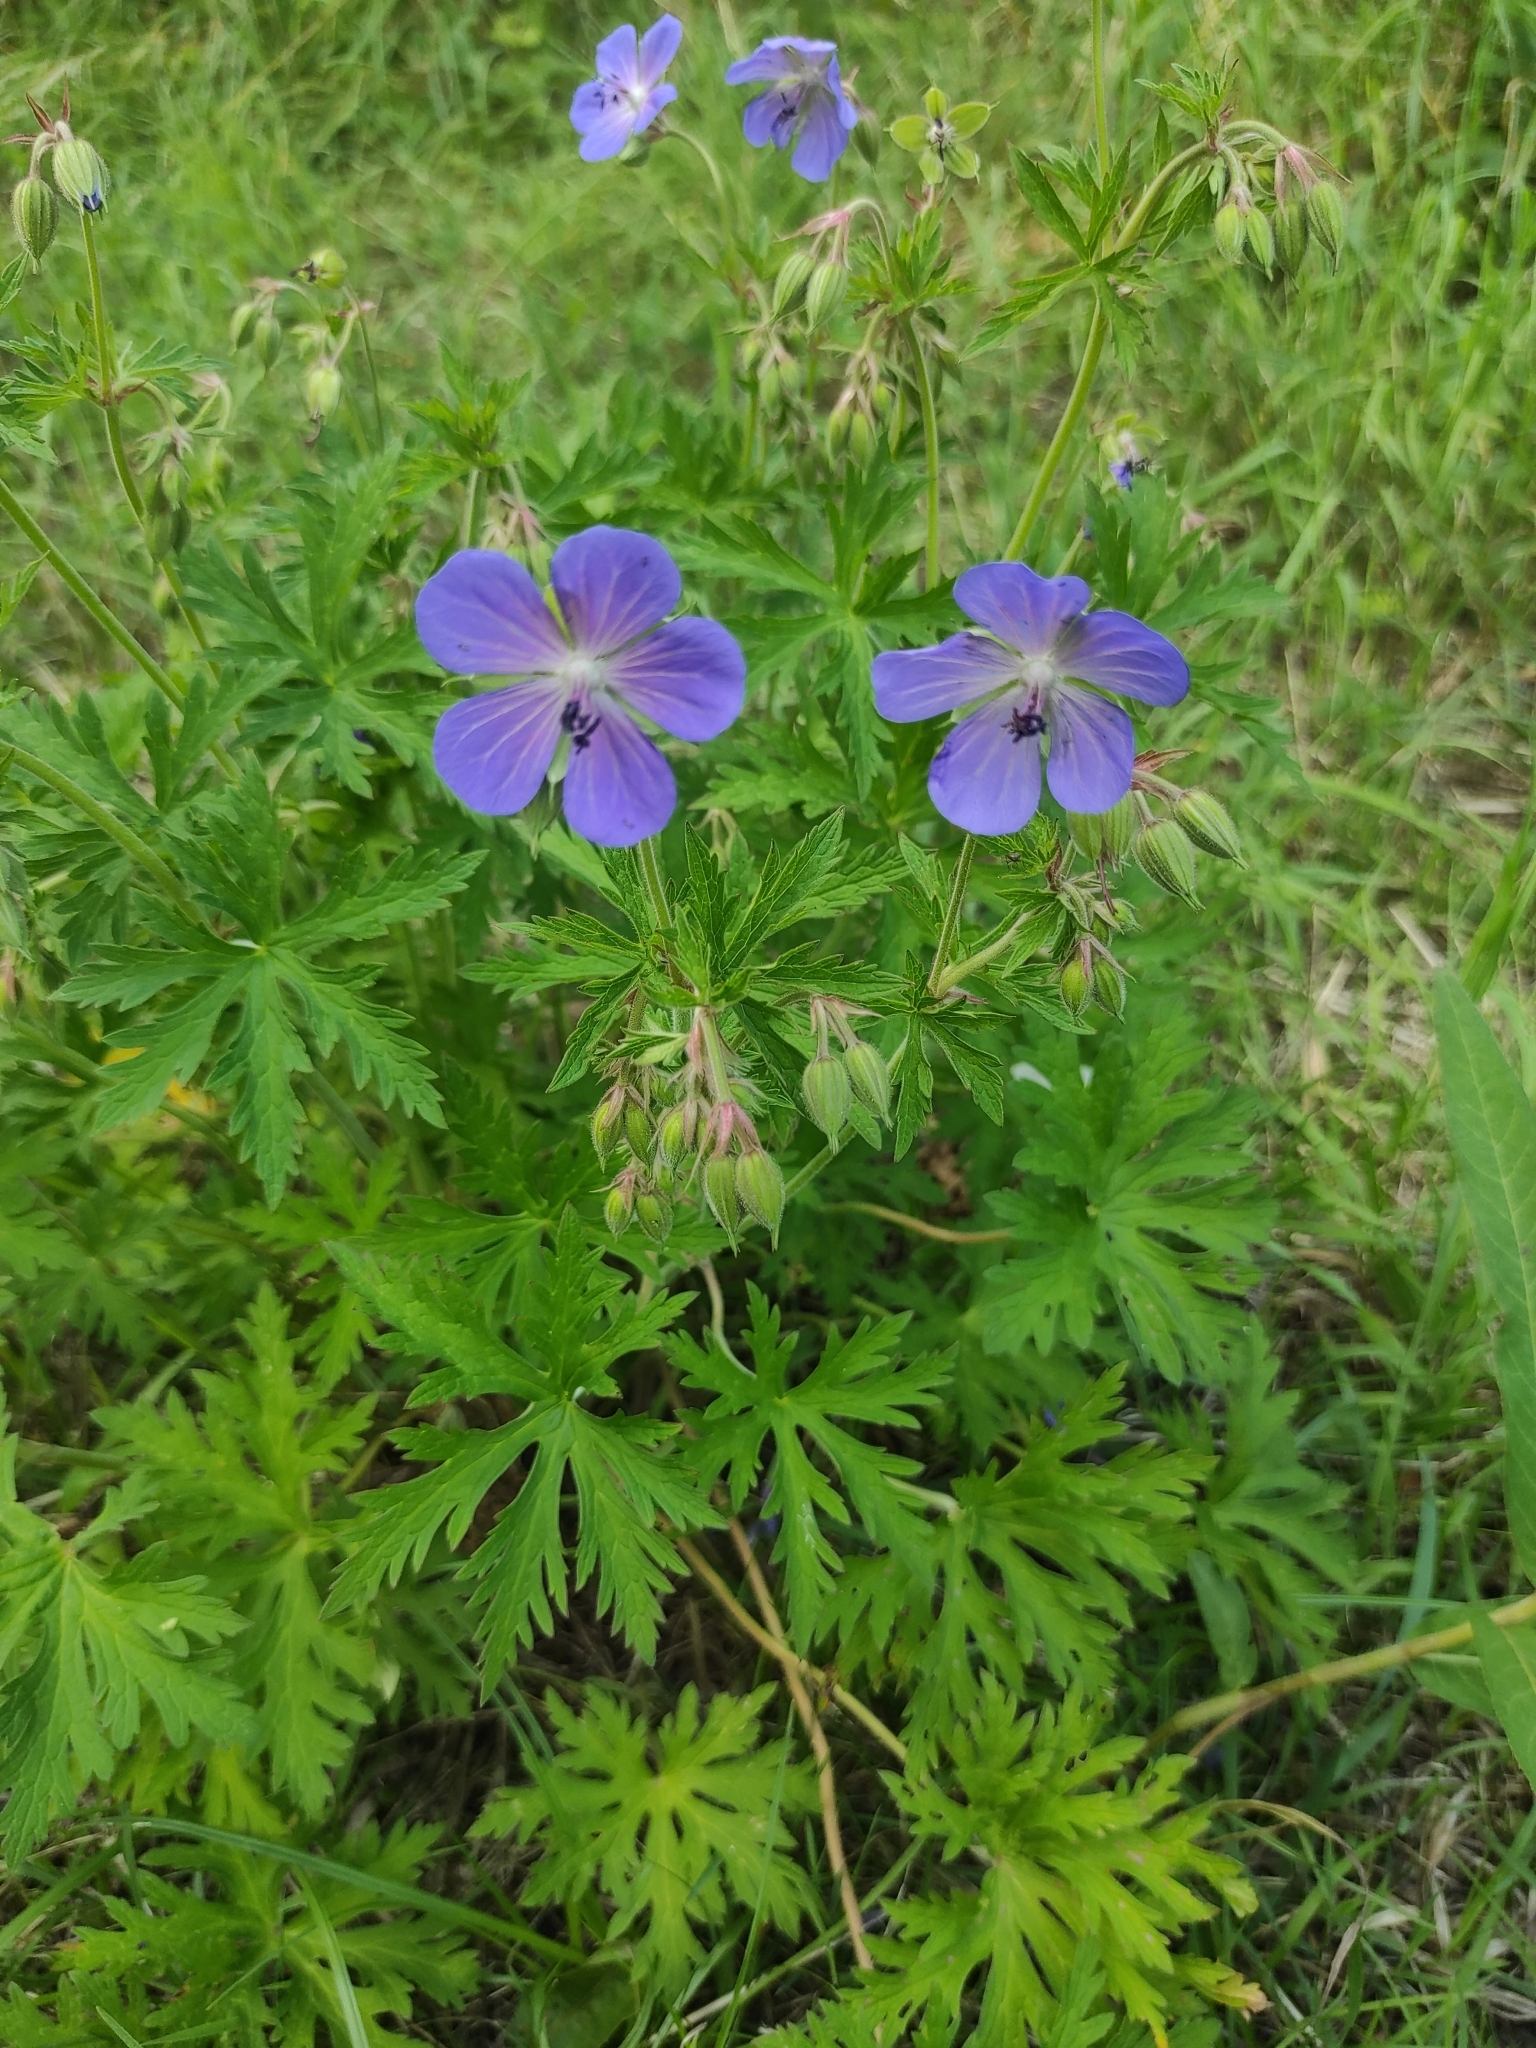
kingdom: Plantae
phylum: Tracheophyta
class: Magnoliopsida
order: Geraniales
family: Geraniaceae
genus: Geranium
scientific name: Geranium pratense
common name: Meadow crane's-bill
